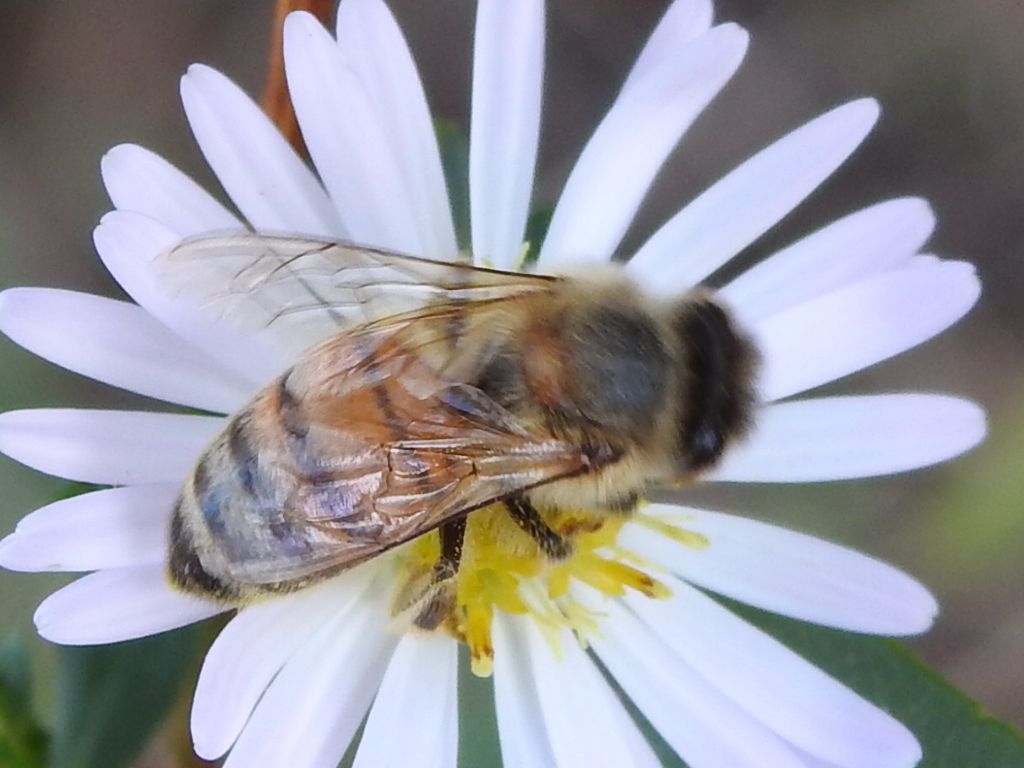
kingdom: Animalia
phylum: Arthropoda
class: Insecta
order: Hymenoptera
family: Apidae
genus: Apis
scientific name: Apis mellifera
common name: Honey bee
